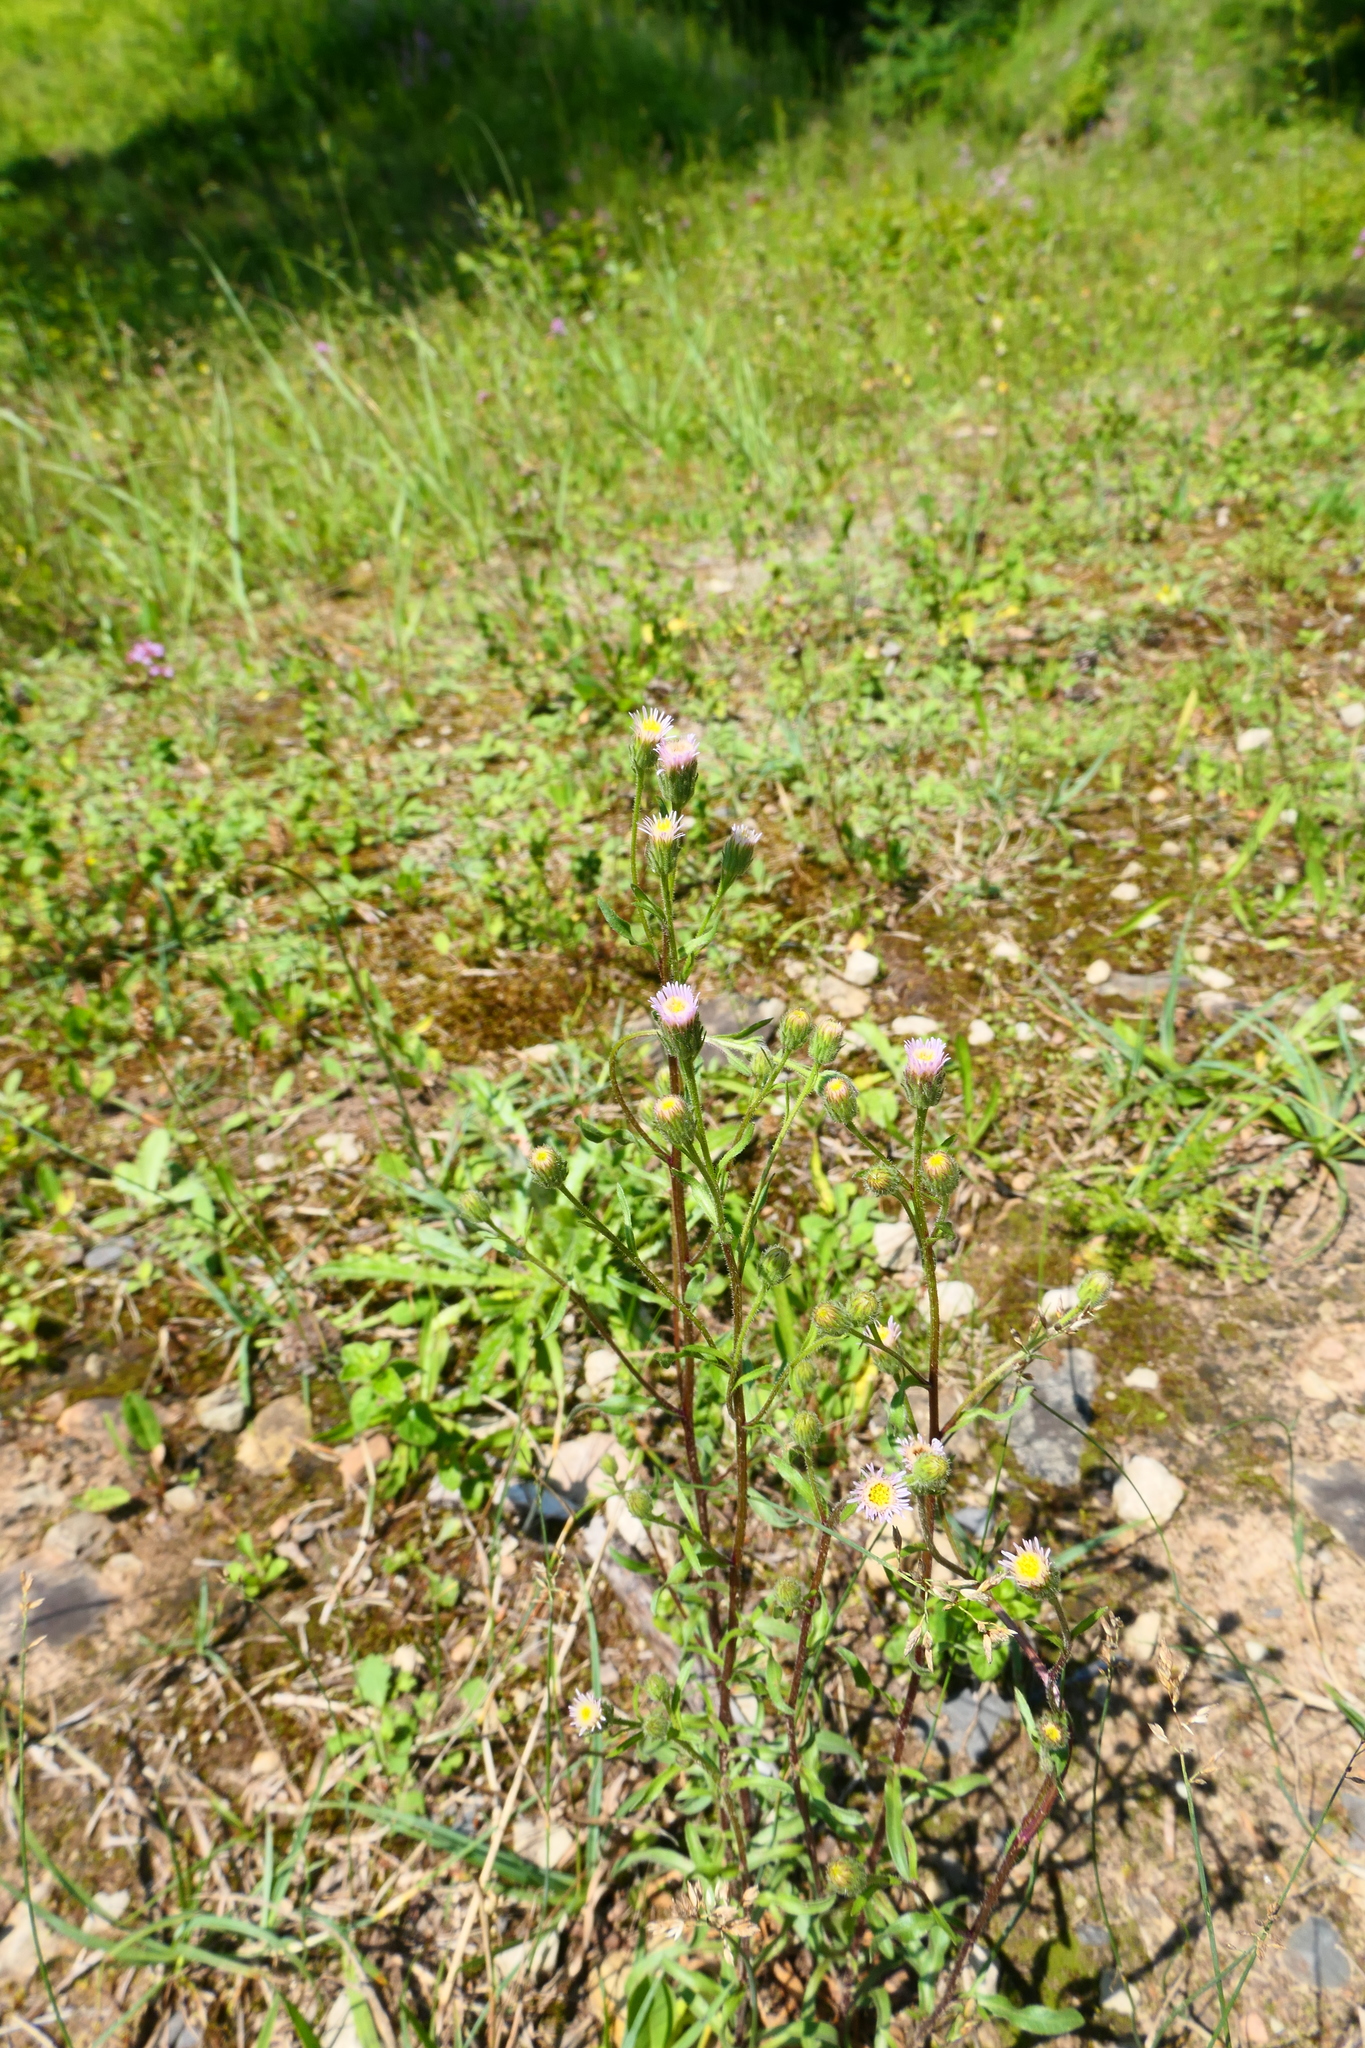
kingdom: Plantae
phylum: Tracheophyta
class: Magnoliopsida
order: Asterales
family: Asteraceae
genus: Erigeron
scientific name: Erigeron acris
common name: Blue fleabane
